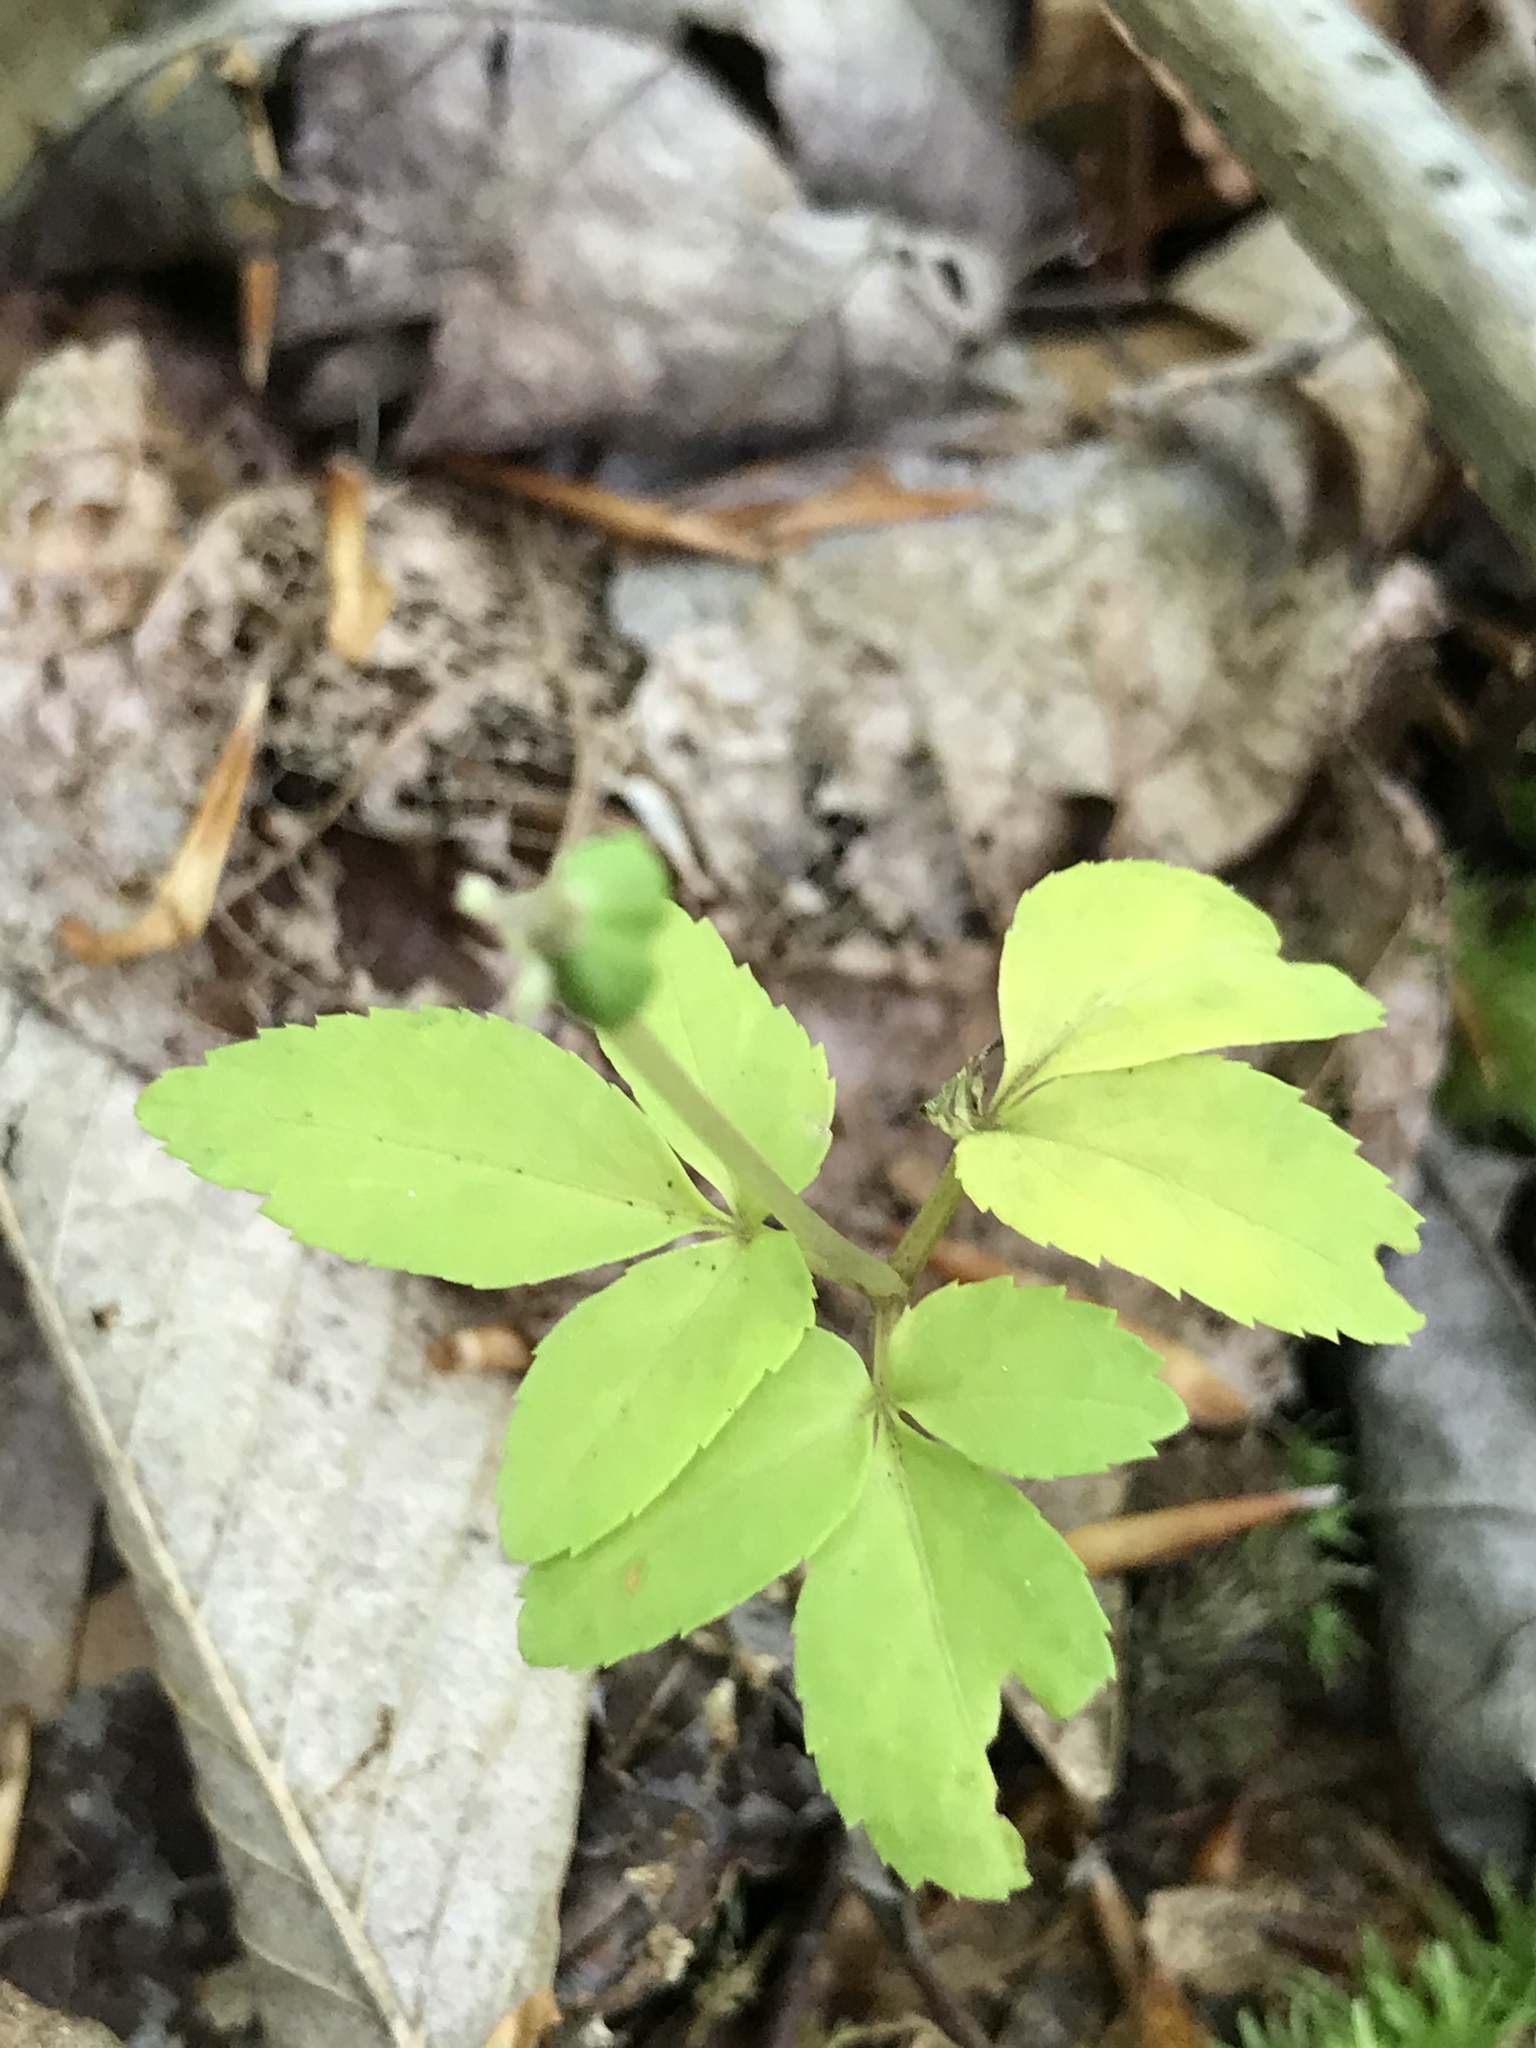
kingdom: Plantae
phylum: Tracheophyta
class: Magnoliopsida
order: Apiales
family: Araliaceae
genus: Panax
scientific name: Panax trifolius
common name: Dwarf ginseng
